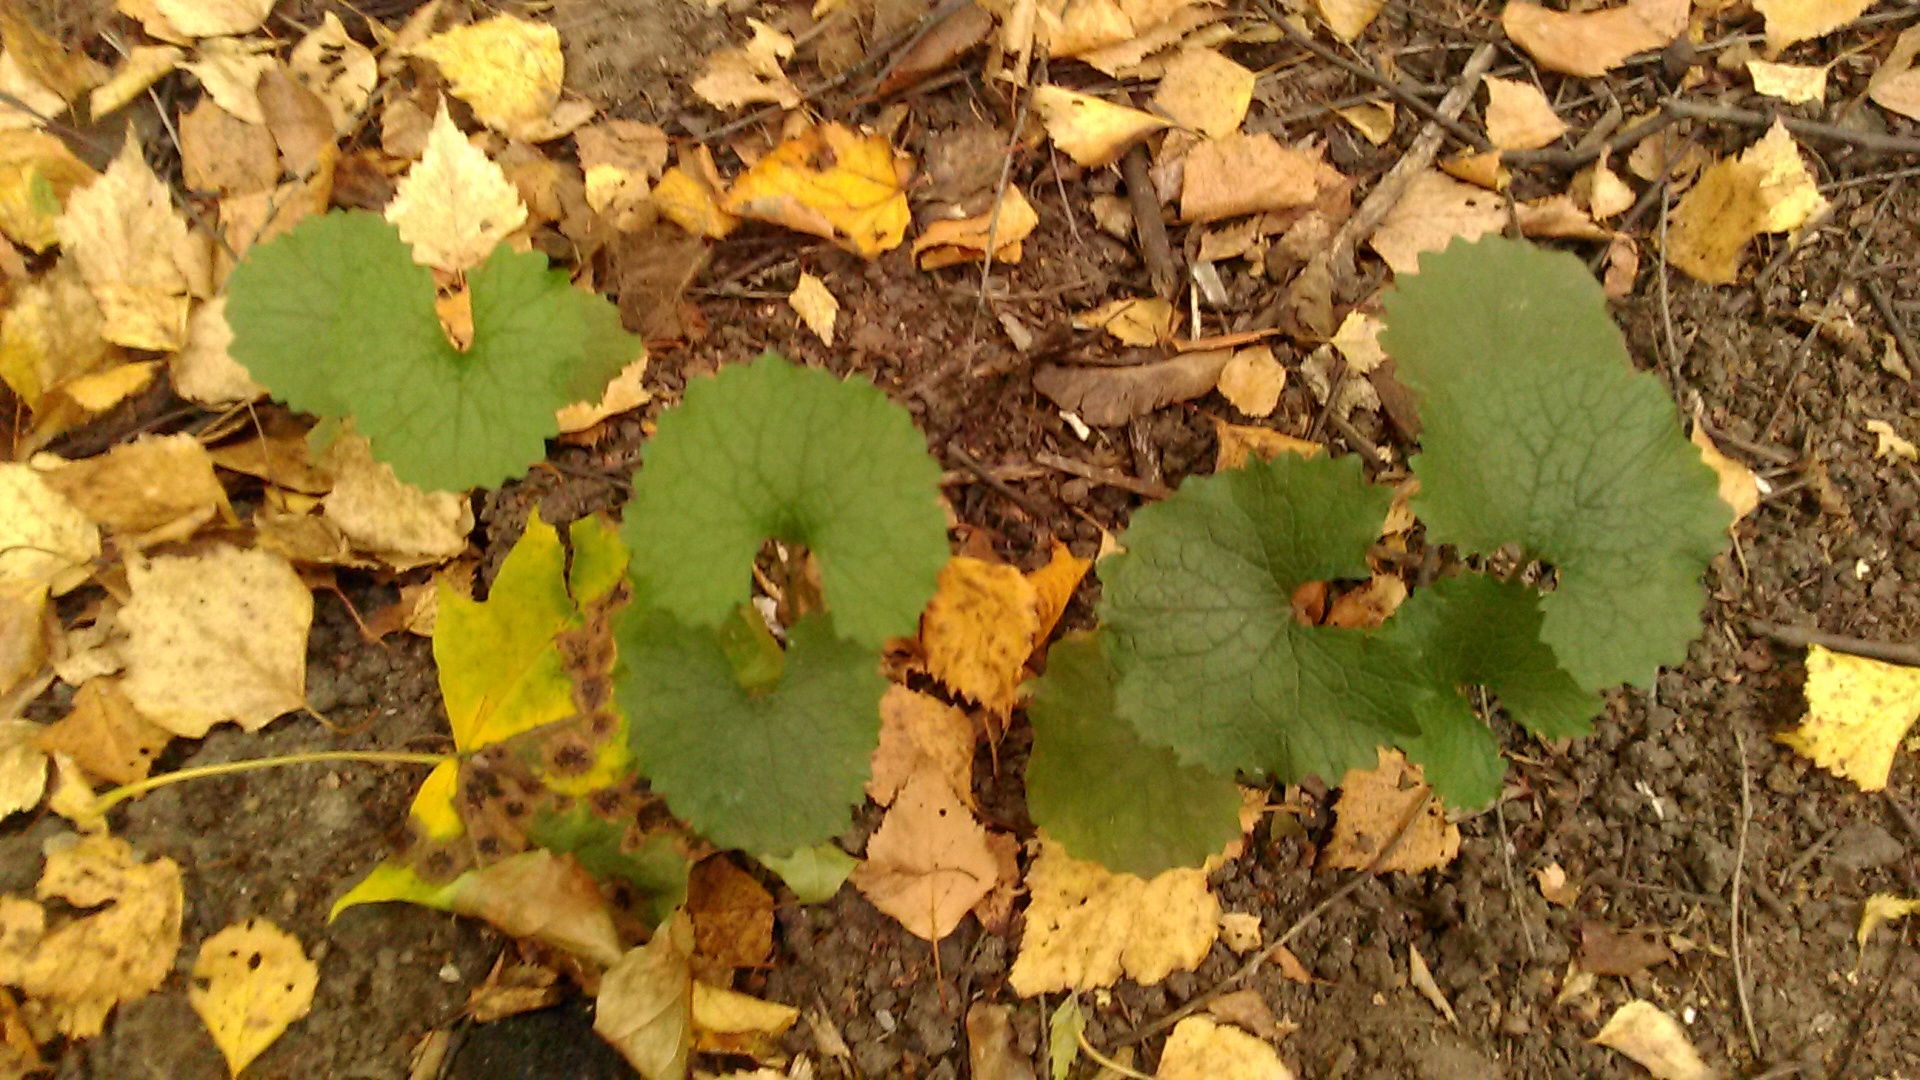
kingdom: Plantae
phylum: Tracheophyta
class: Magnoliopsida
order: Brassicales
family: Brassicaceae
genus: Alliaria
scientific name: Alliaria petiolata
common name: Garlic mustard
